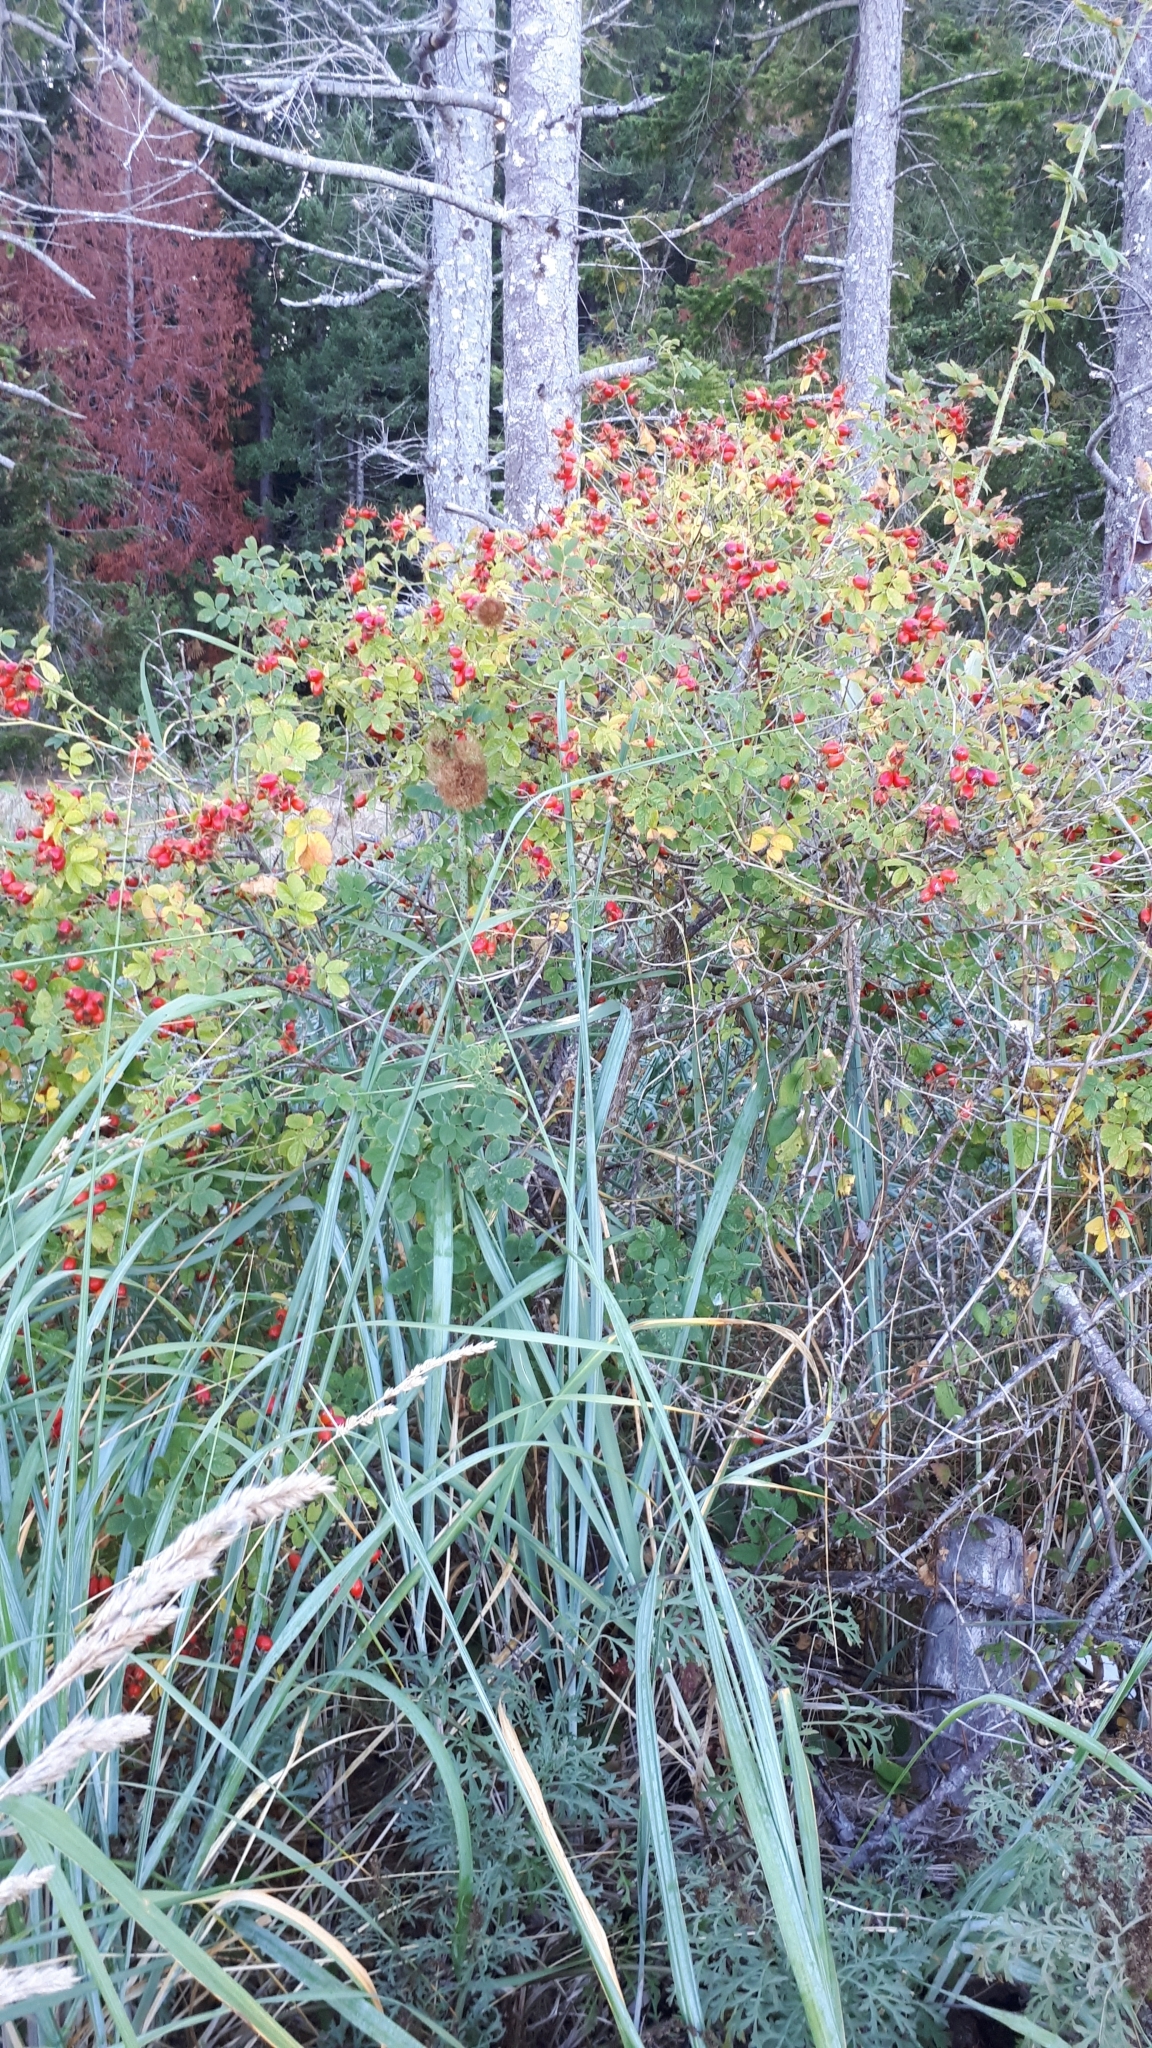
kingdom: Plantae
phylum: Tracheophyta
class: Magnoliopsida
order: Rosales
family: Rosaceae
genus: Rosa
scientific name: Rosa rubiginosa
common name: Sweet-briar
